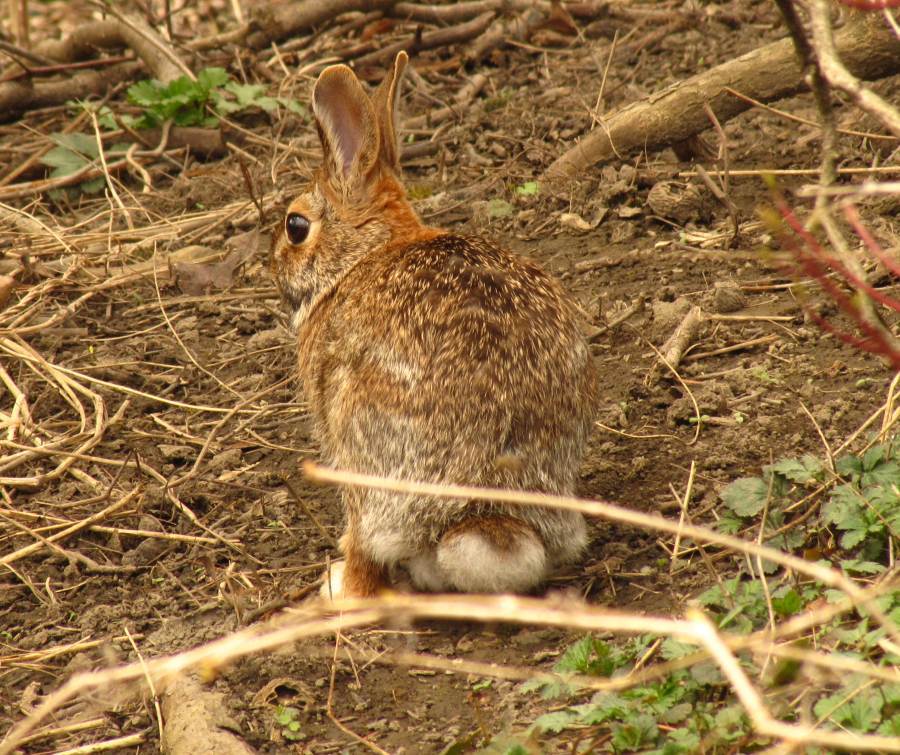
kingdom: Animalia
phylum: Chordata
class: Mammalia
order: Lagomorpha
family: Leporidae
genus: Sylvilagus
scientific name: Sylvilagus floridanus
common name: Eastern cottontail
